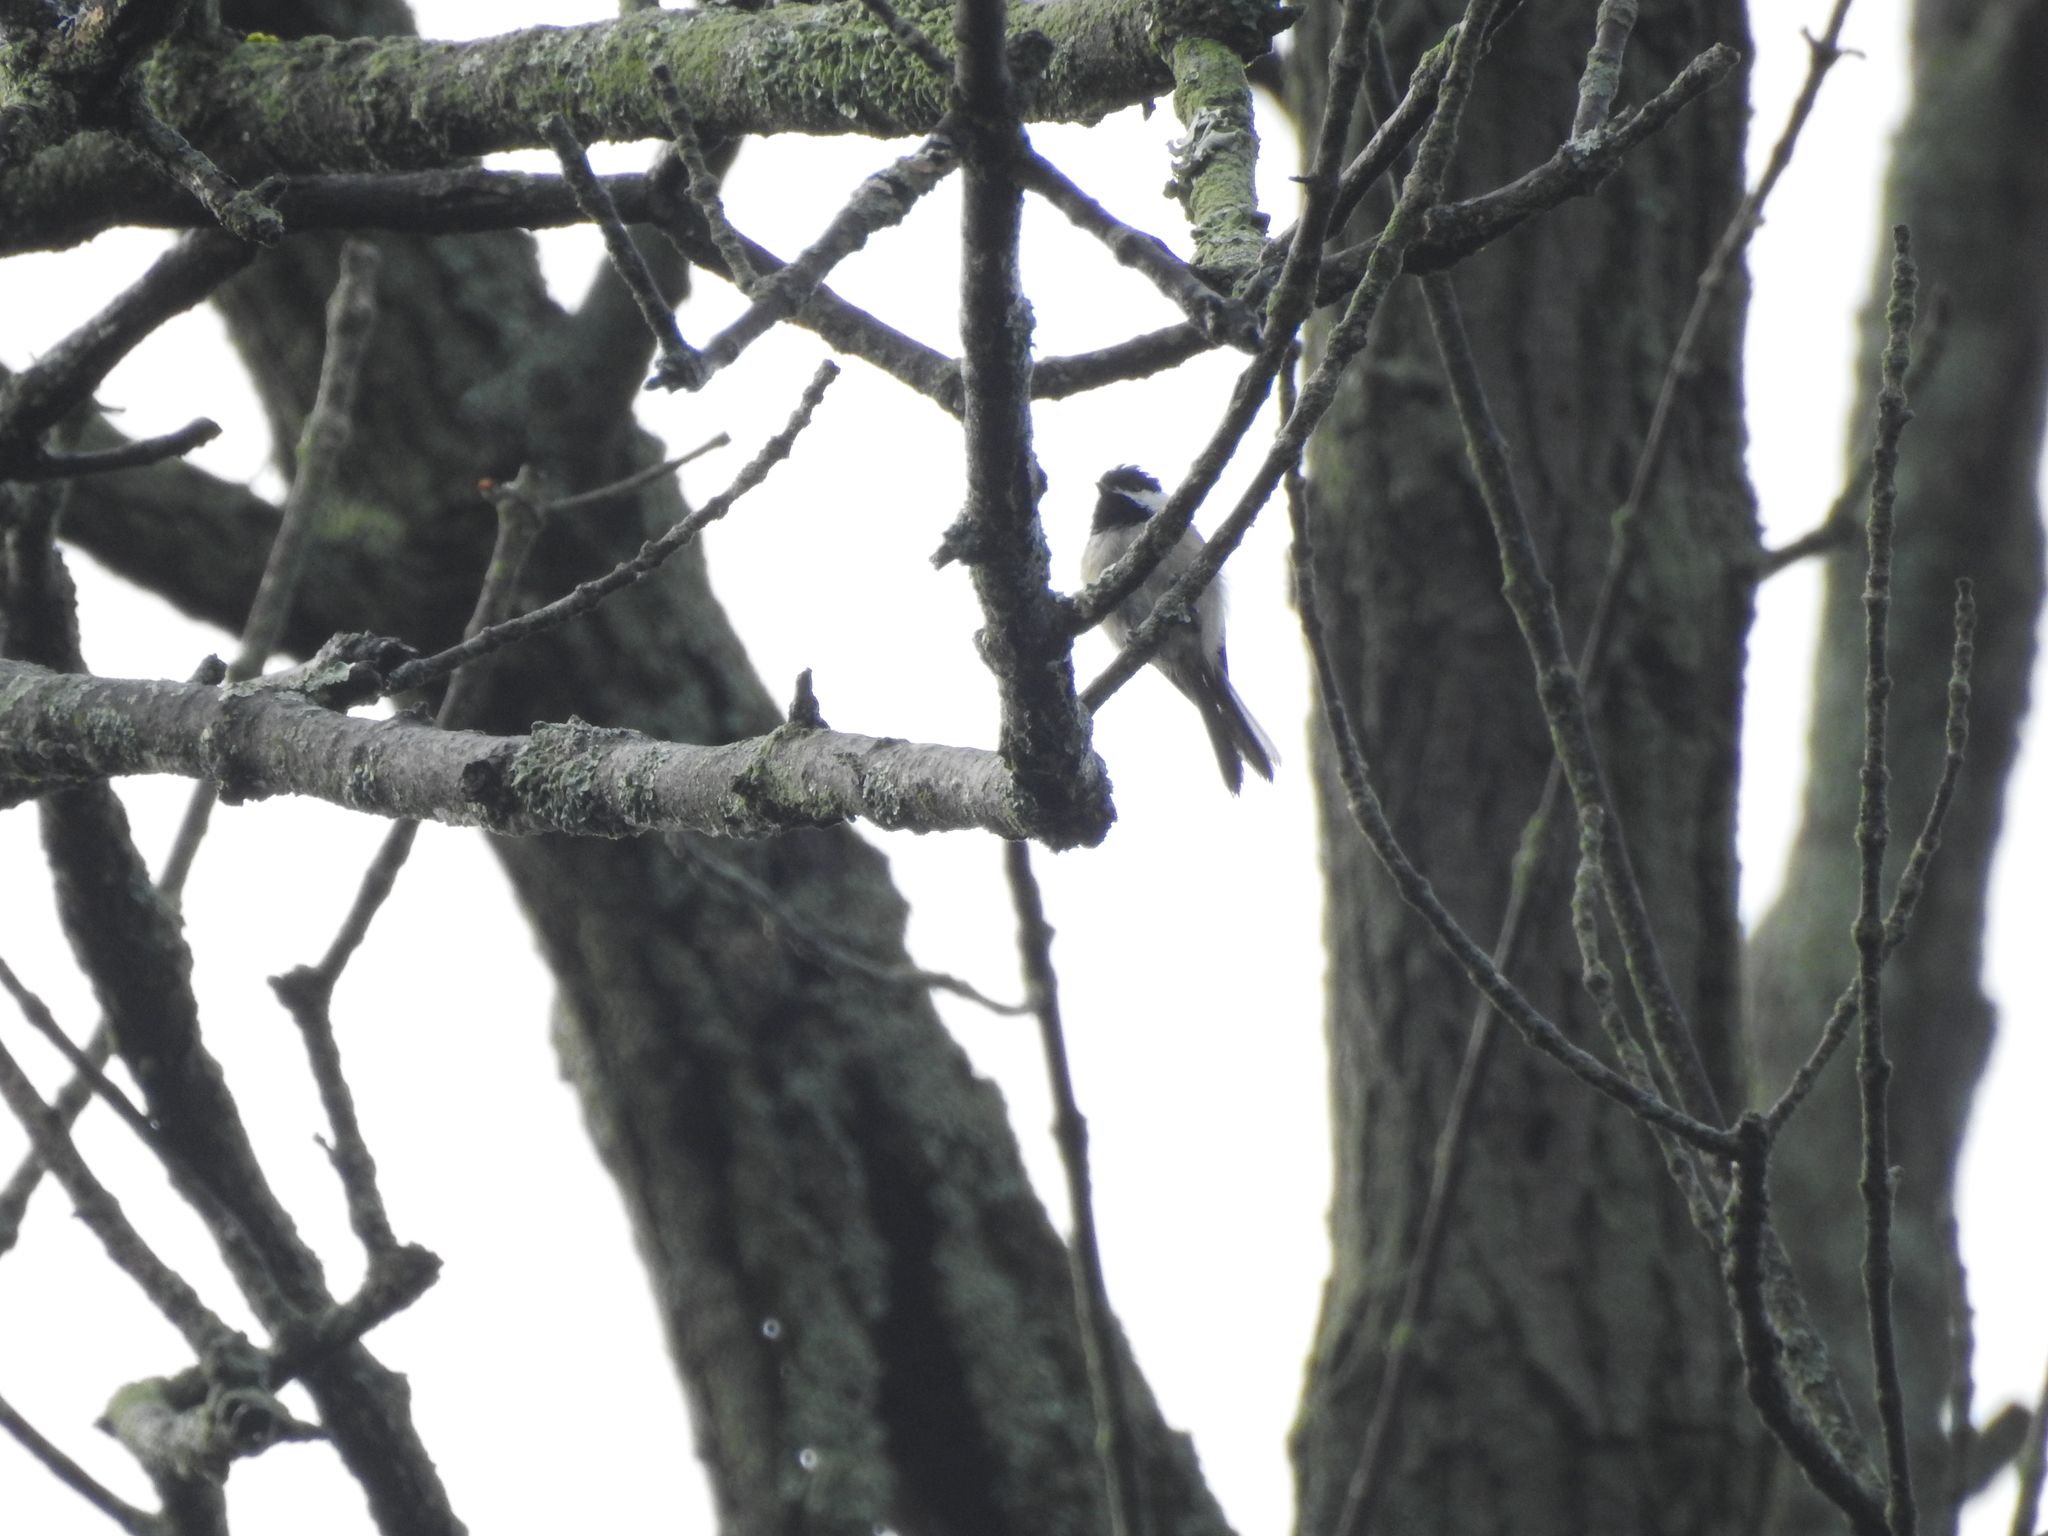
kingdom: Animalia
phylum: Chordata
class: Aves
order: Passeriformes
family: Paridae
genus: Poecile
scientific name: Poecile carolinensis
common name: Carolina chickadee
